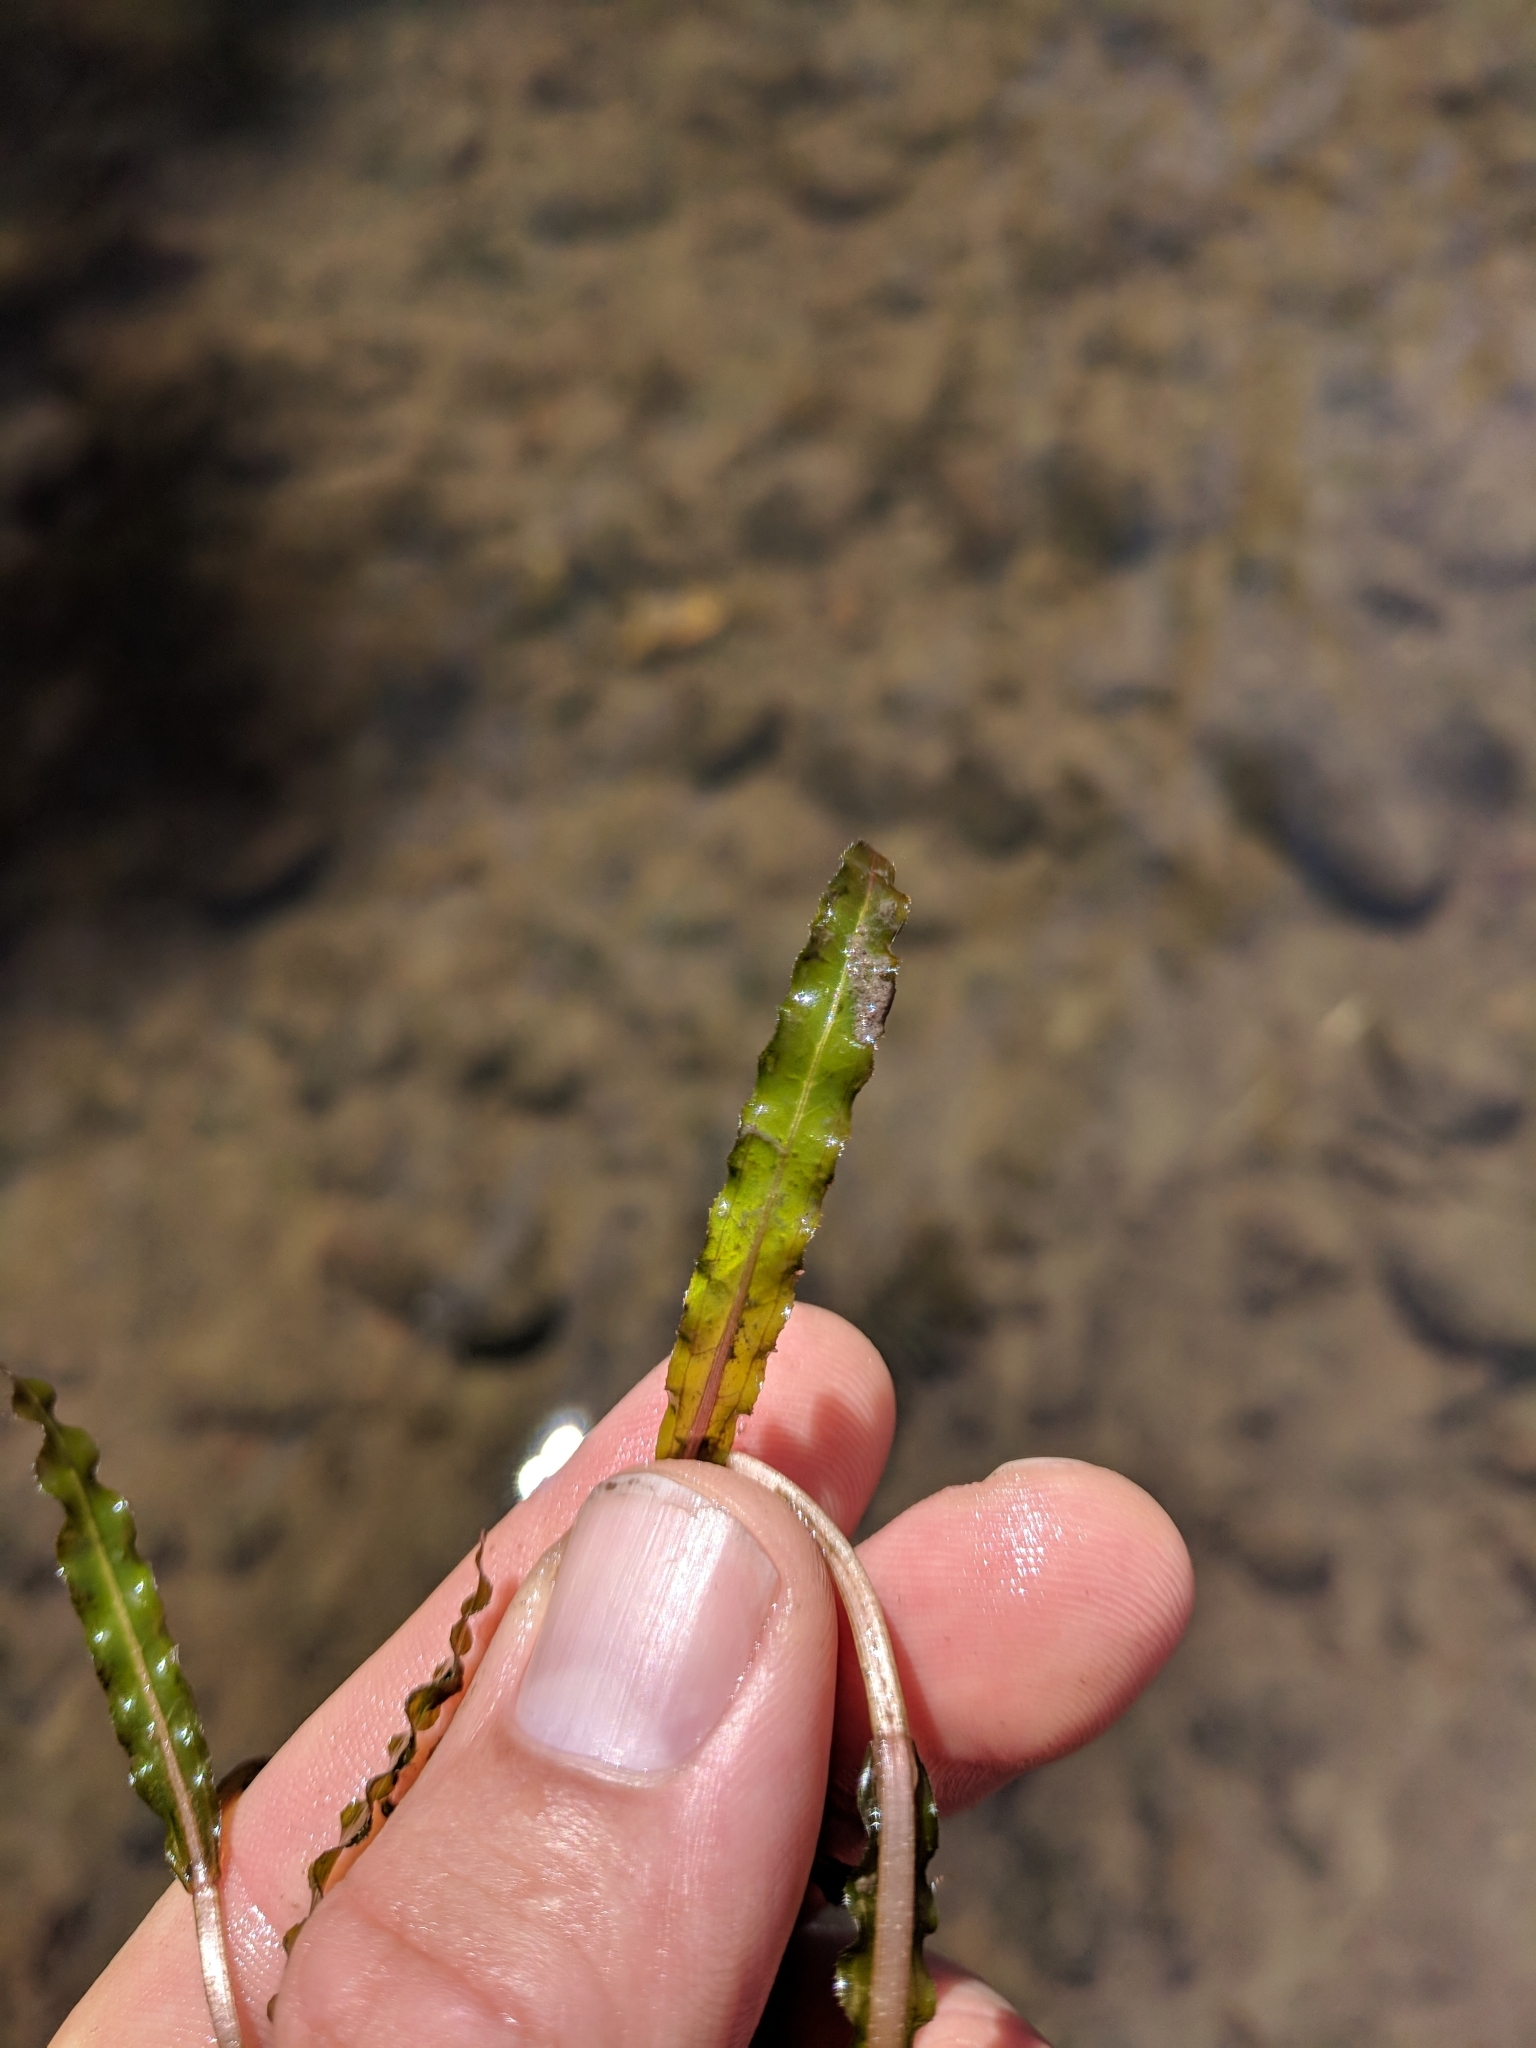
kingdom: Plantae
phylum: Tracheophyta
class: Liliopsida
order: Alismatales
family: Potamogetonaceae
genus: Potamogeton
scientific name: Potamogeton crispus
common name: Curled pondweed
